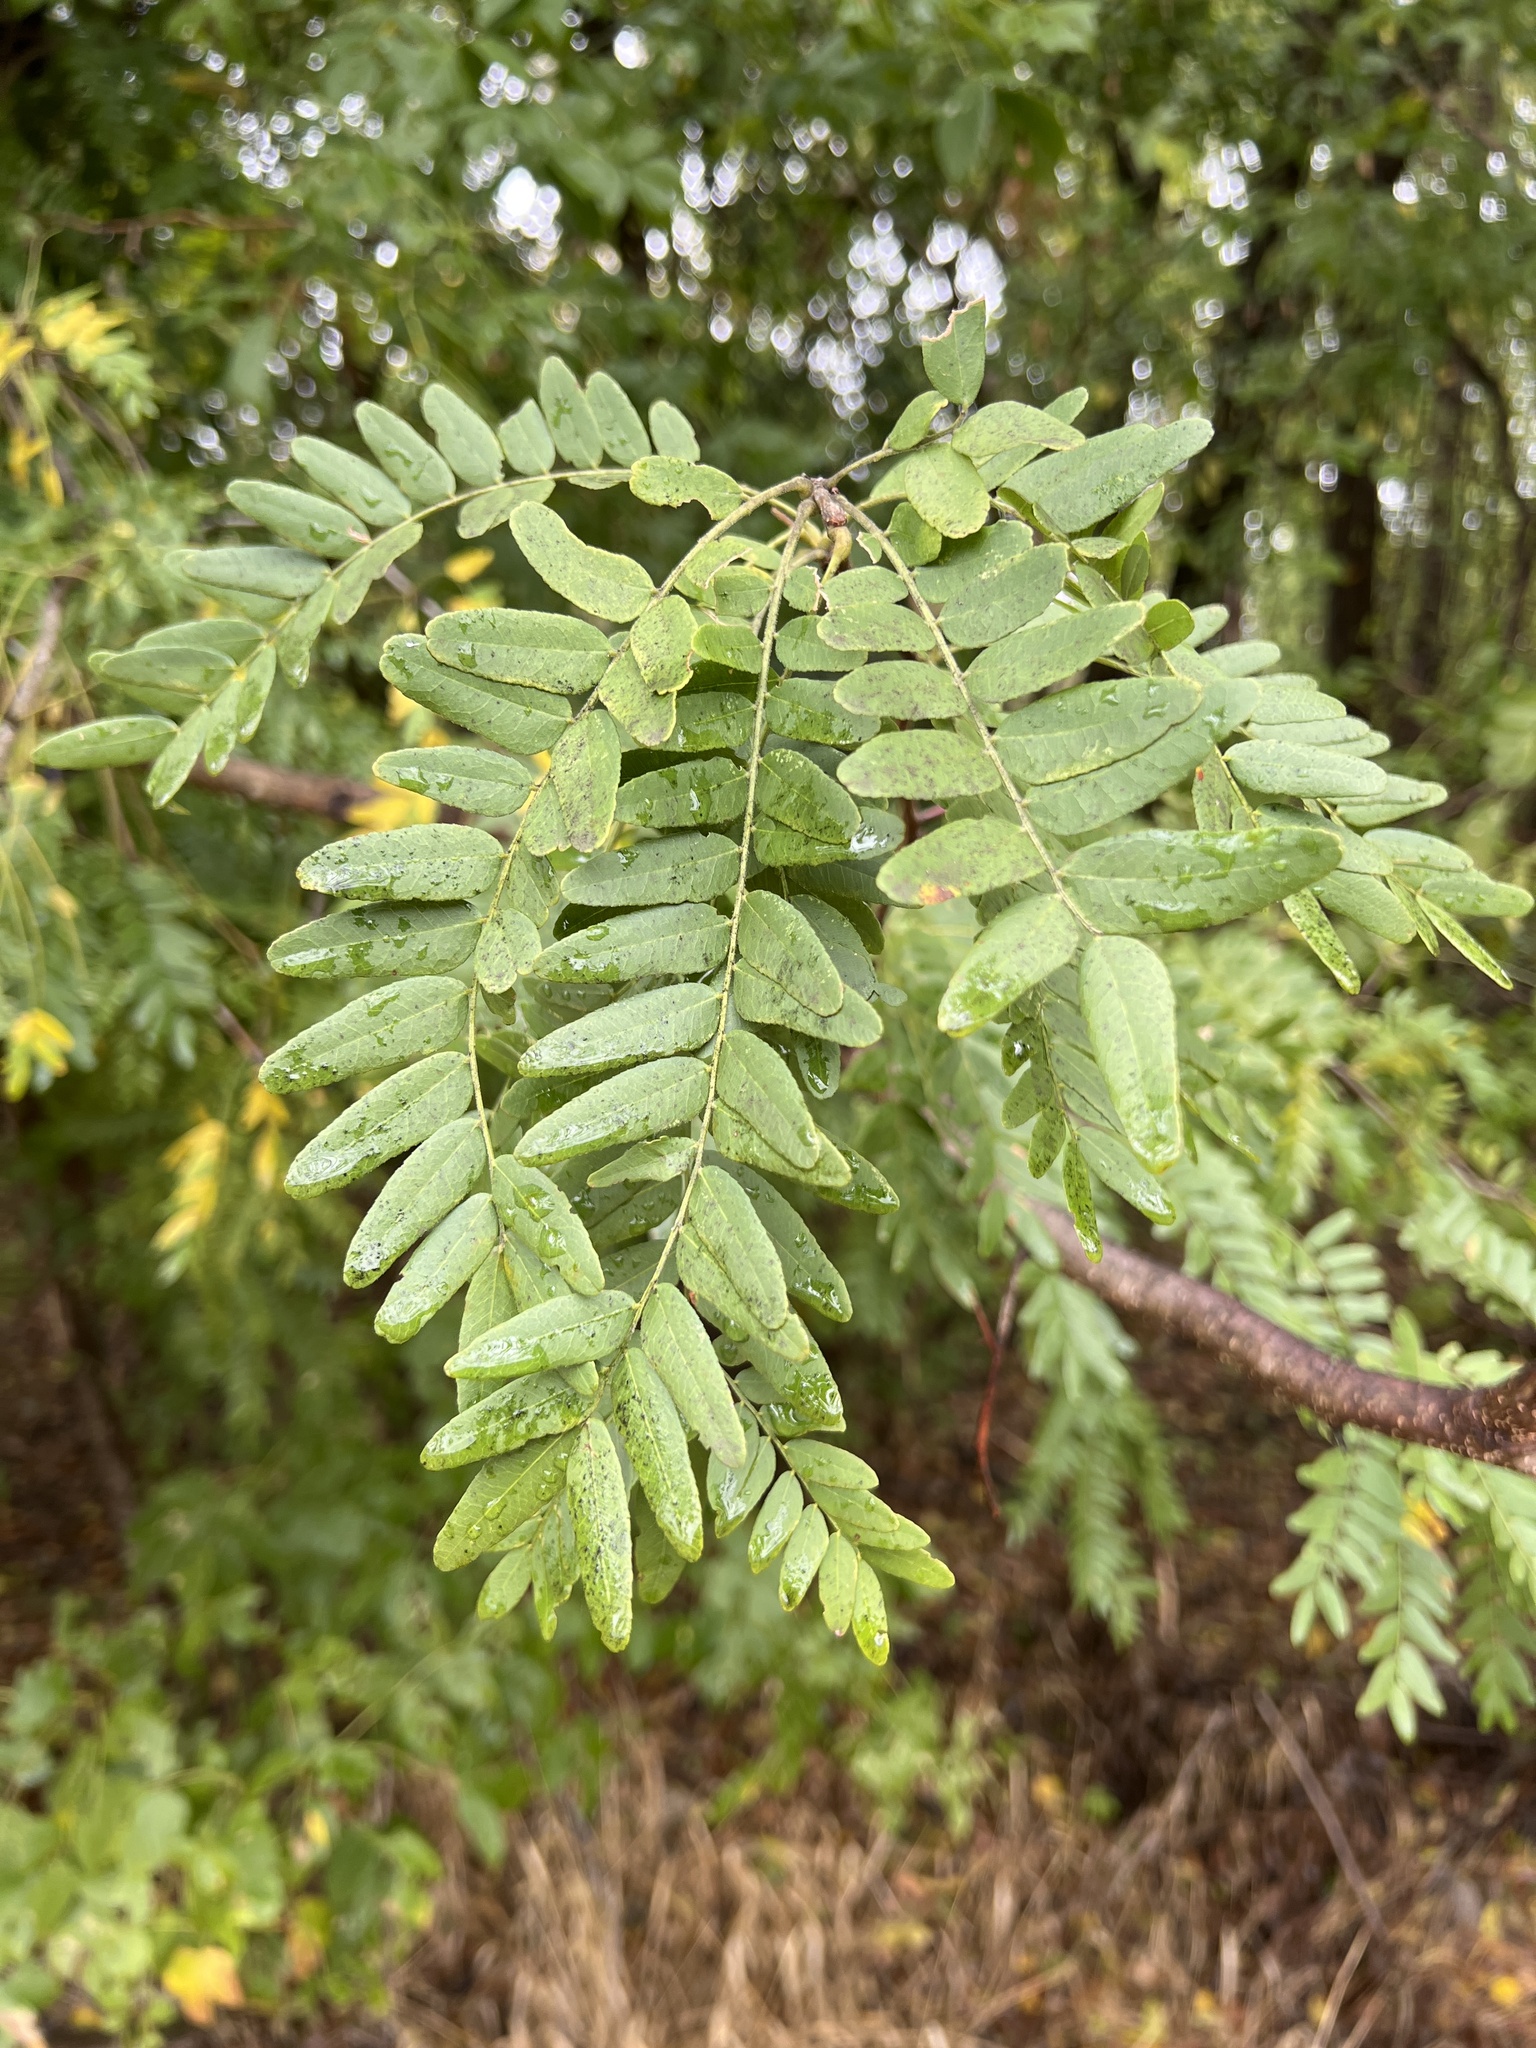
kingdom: Plantae
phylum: Tracheophyta
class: Magnoliopsida
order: Fabales
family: Fabaceae
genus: Gleditsia
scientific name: Gleditsia triacanthos
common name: Common honeylocust
